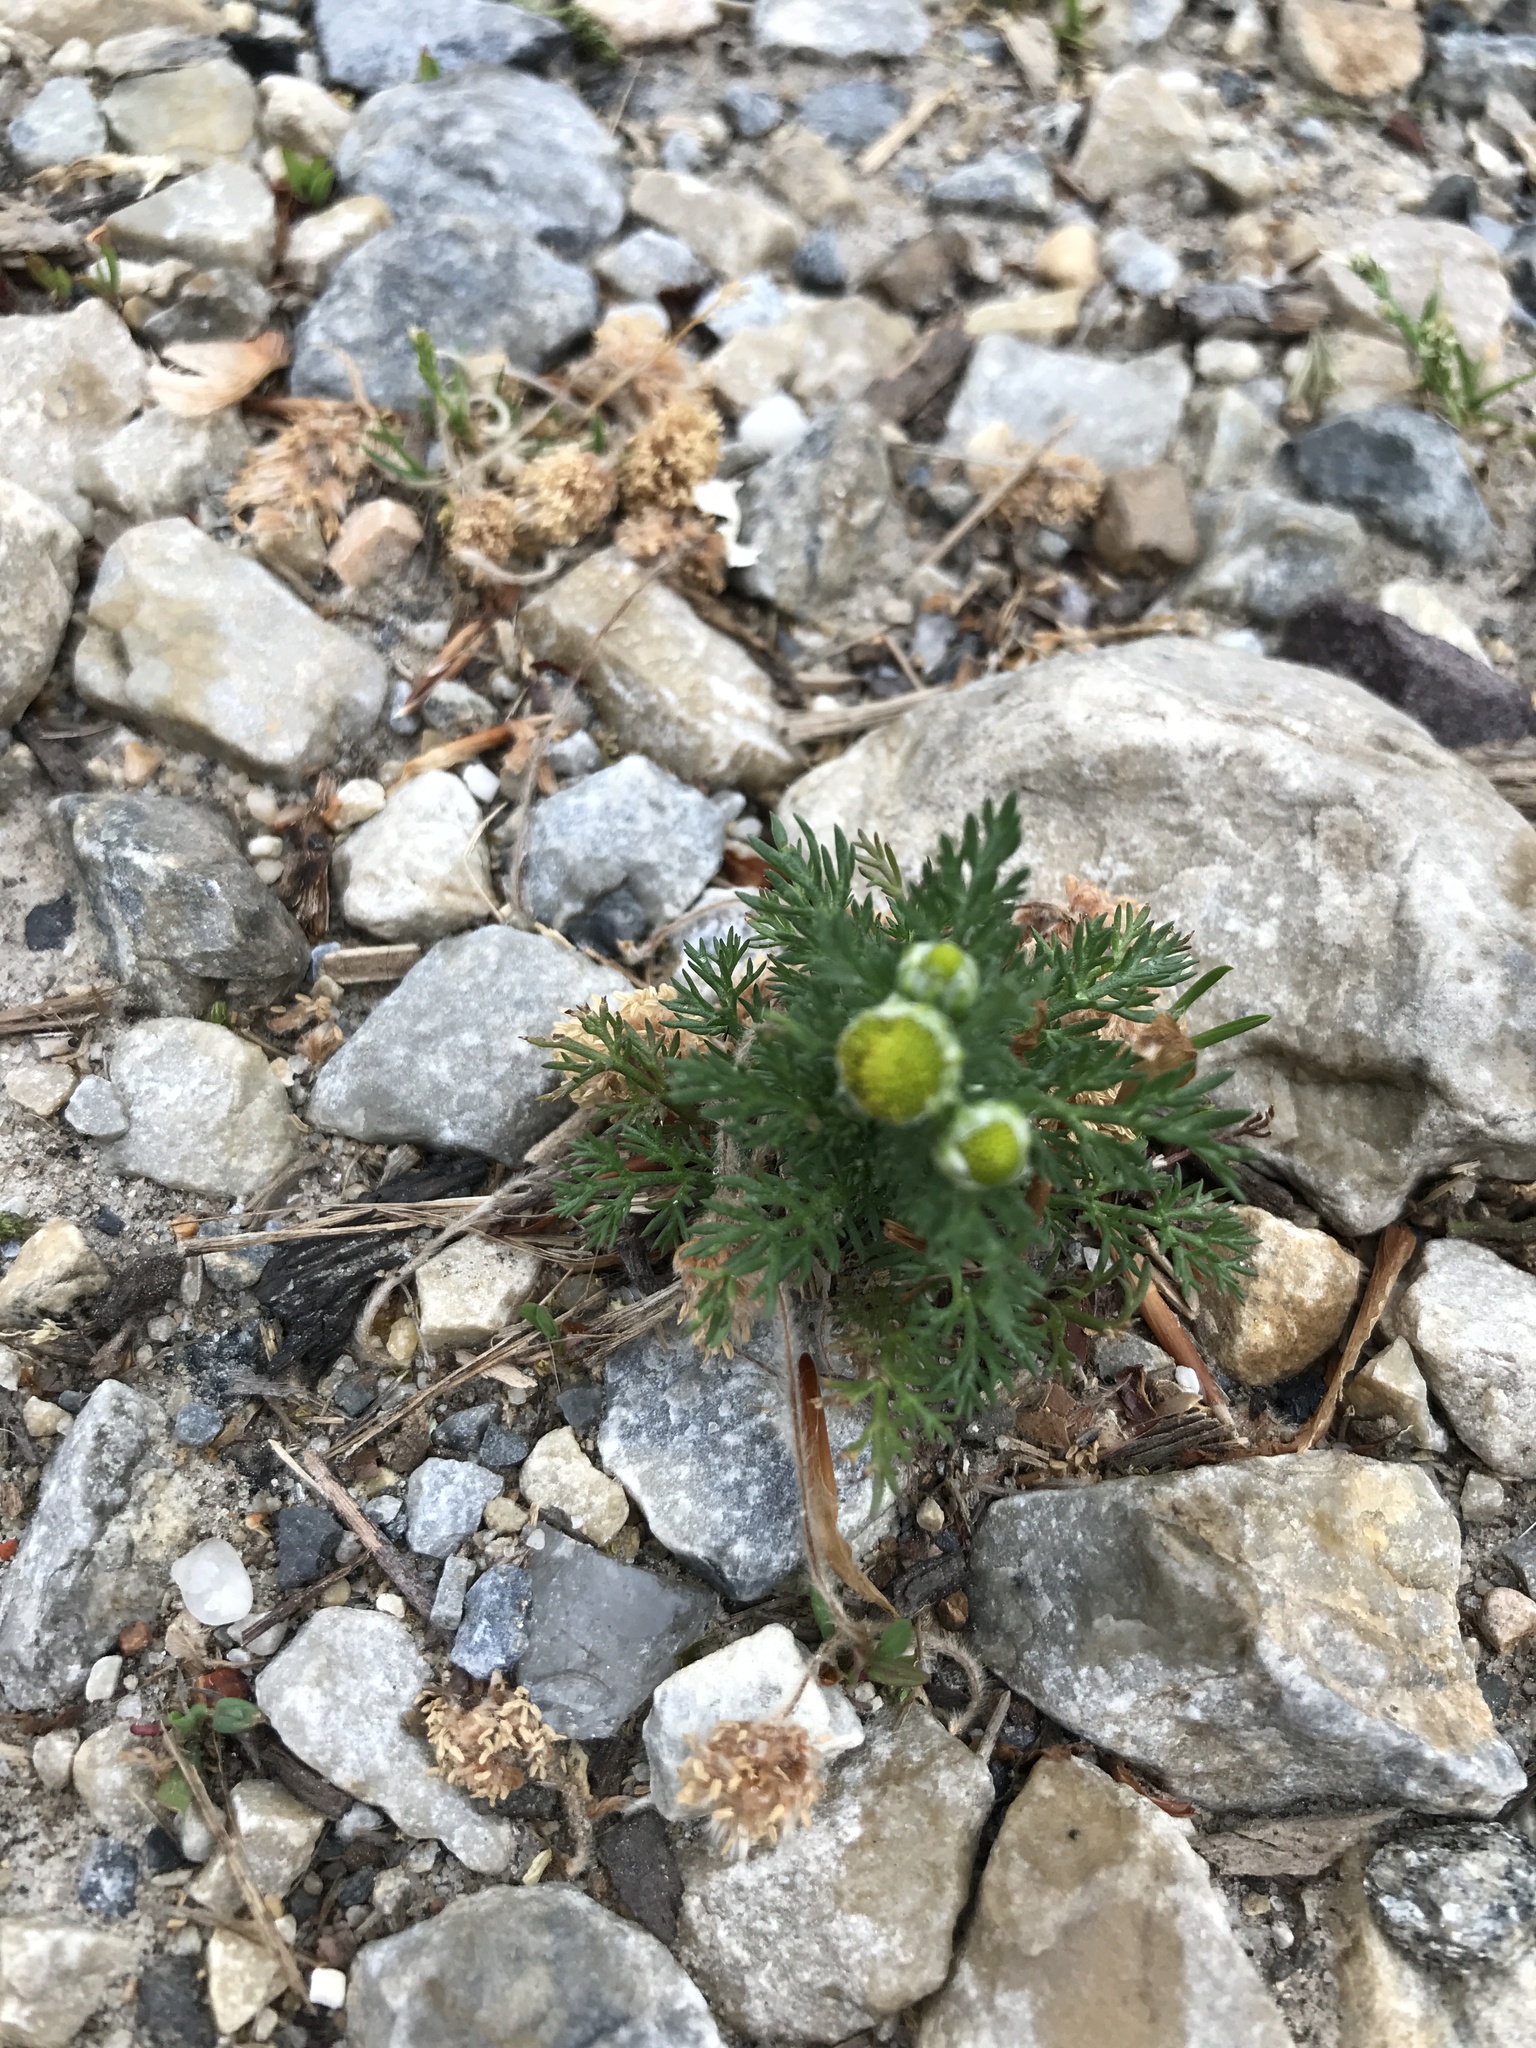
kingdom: Plantae
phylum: Tracheophyta
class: Magnoliopsida
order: Asterales
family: Asteraceae
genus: Matricaria
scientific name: Matricaria discoidea
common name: Disc mayweed
